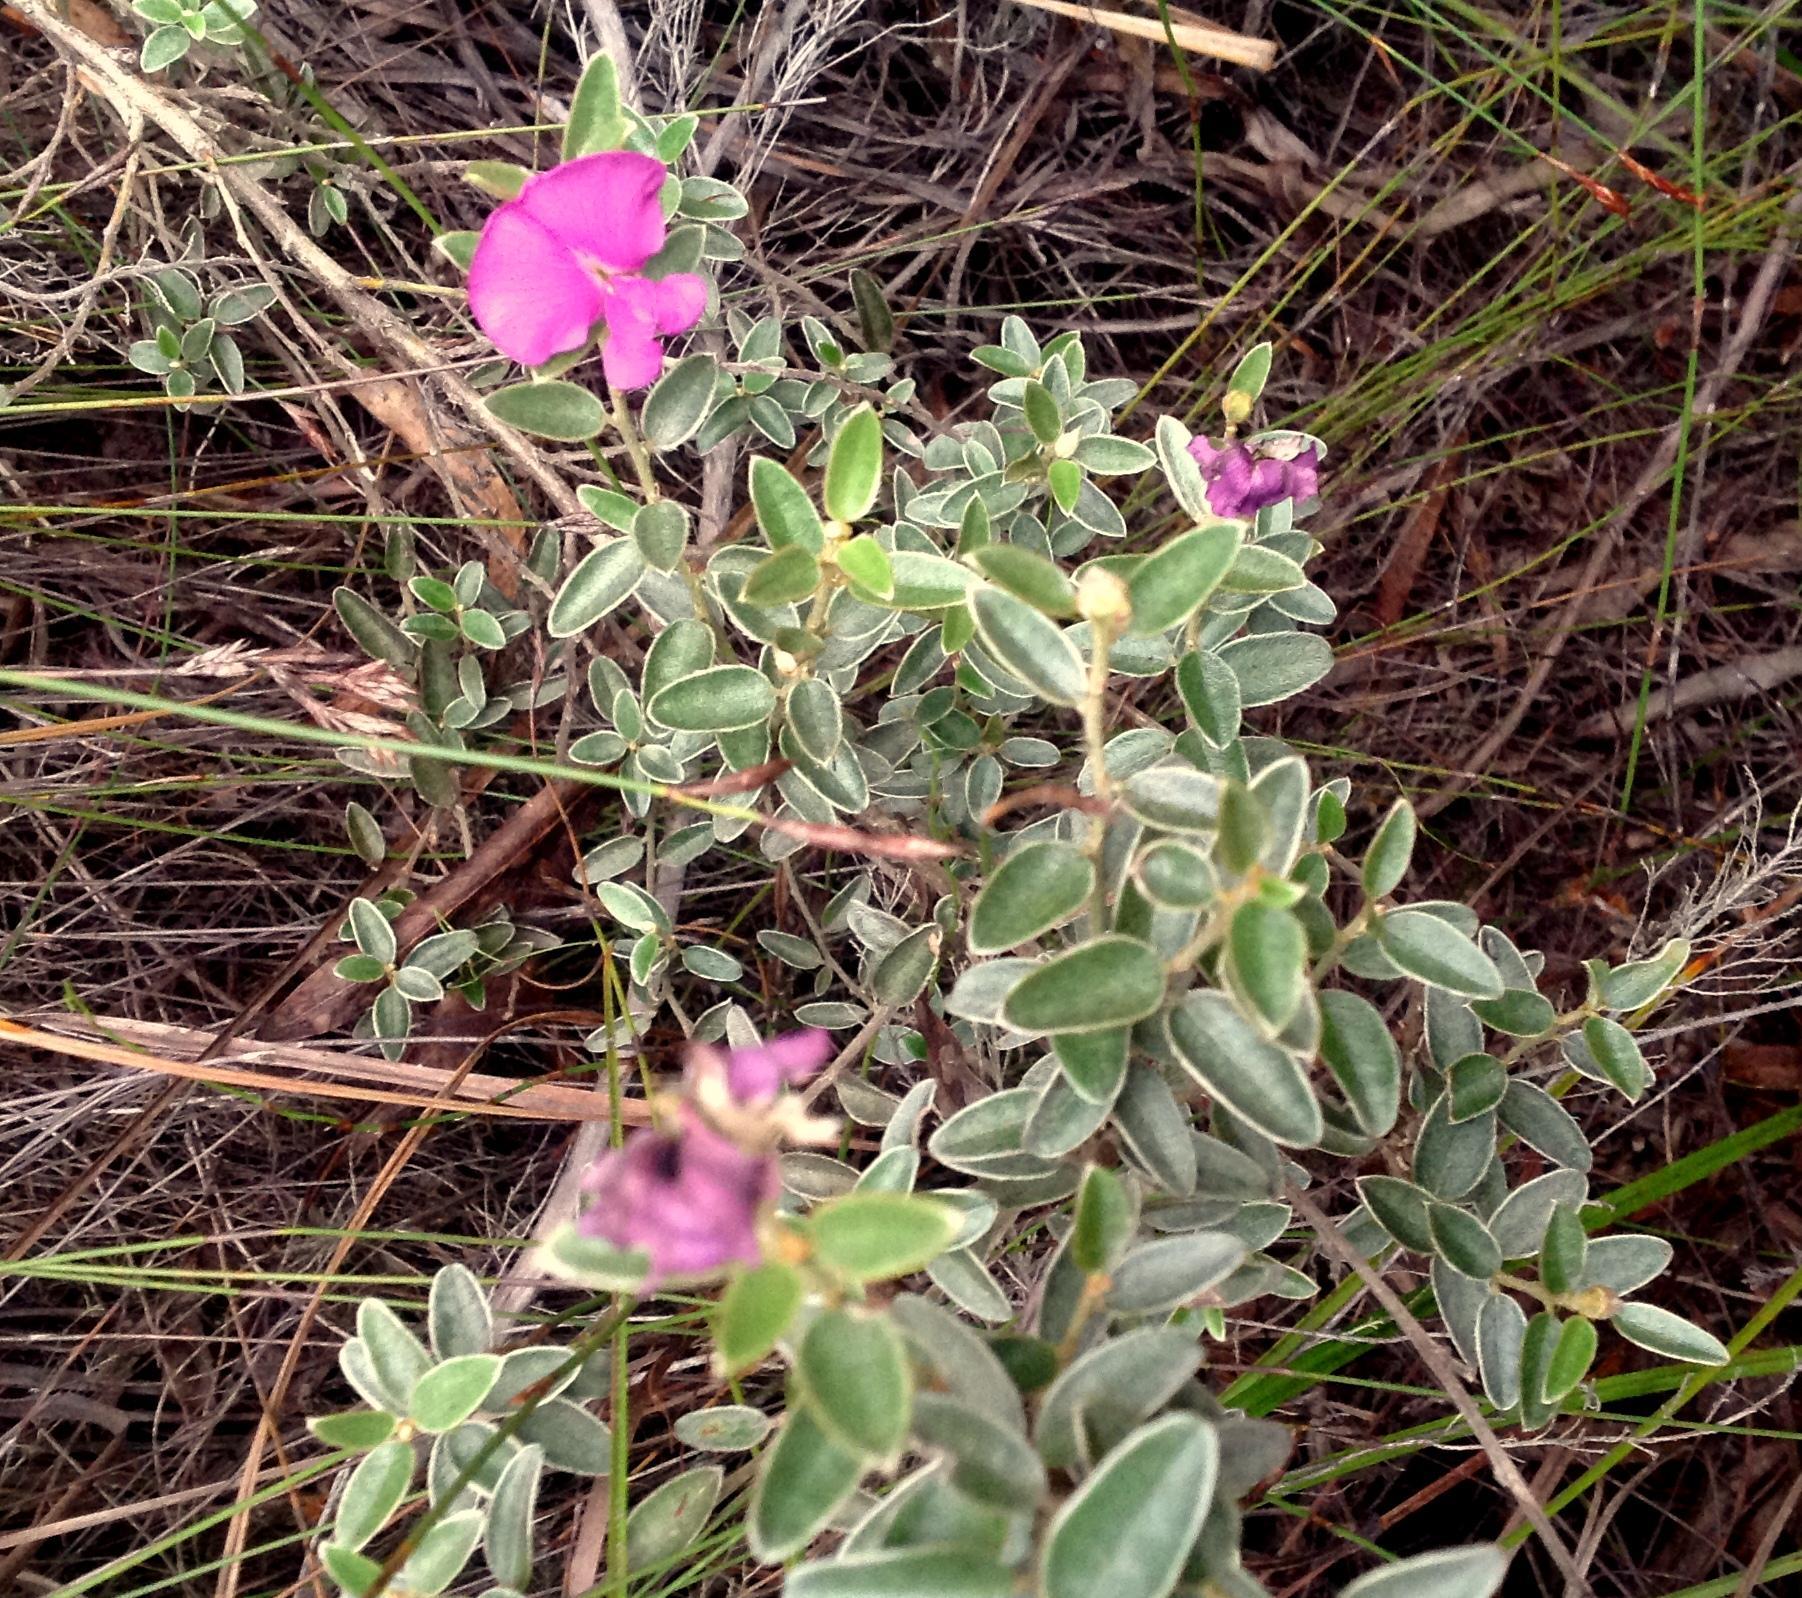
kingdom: Plantae
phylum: Tracheophyta
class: Magnoliopsida
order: Fabales
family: Fabaceae
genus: Podalyria
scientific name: Podalyria burchellii
